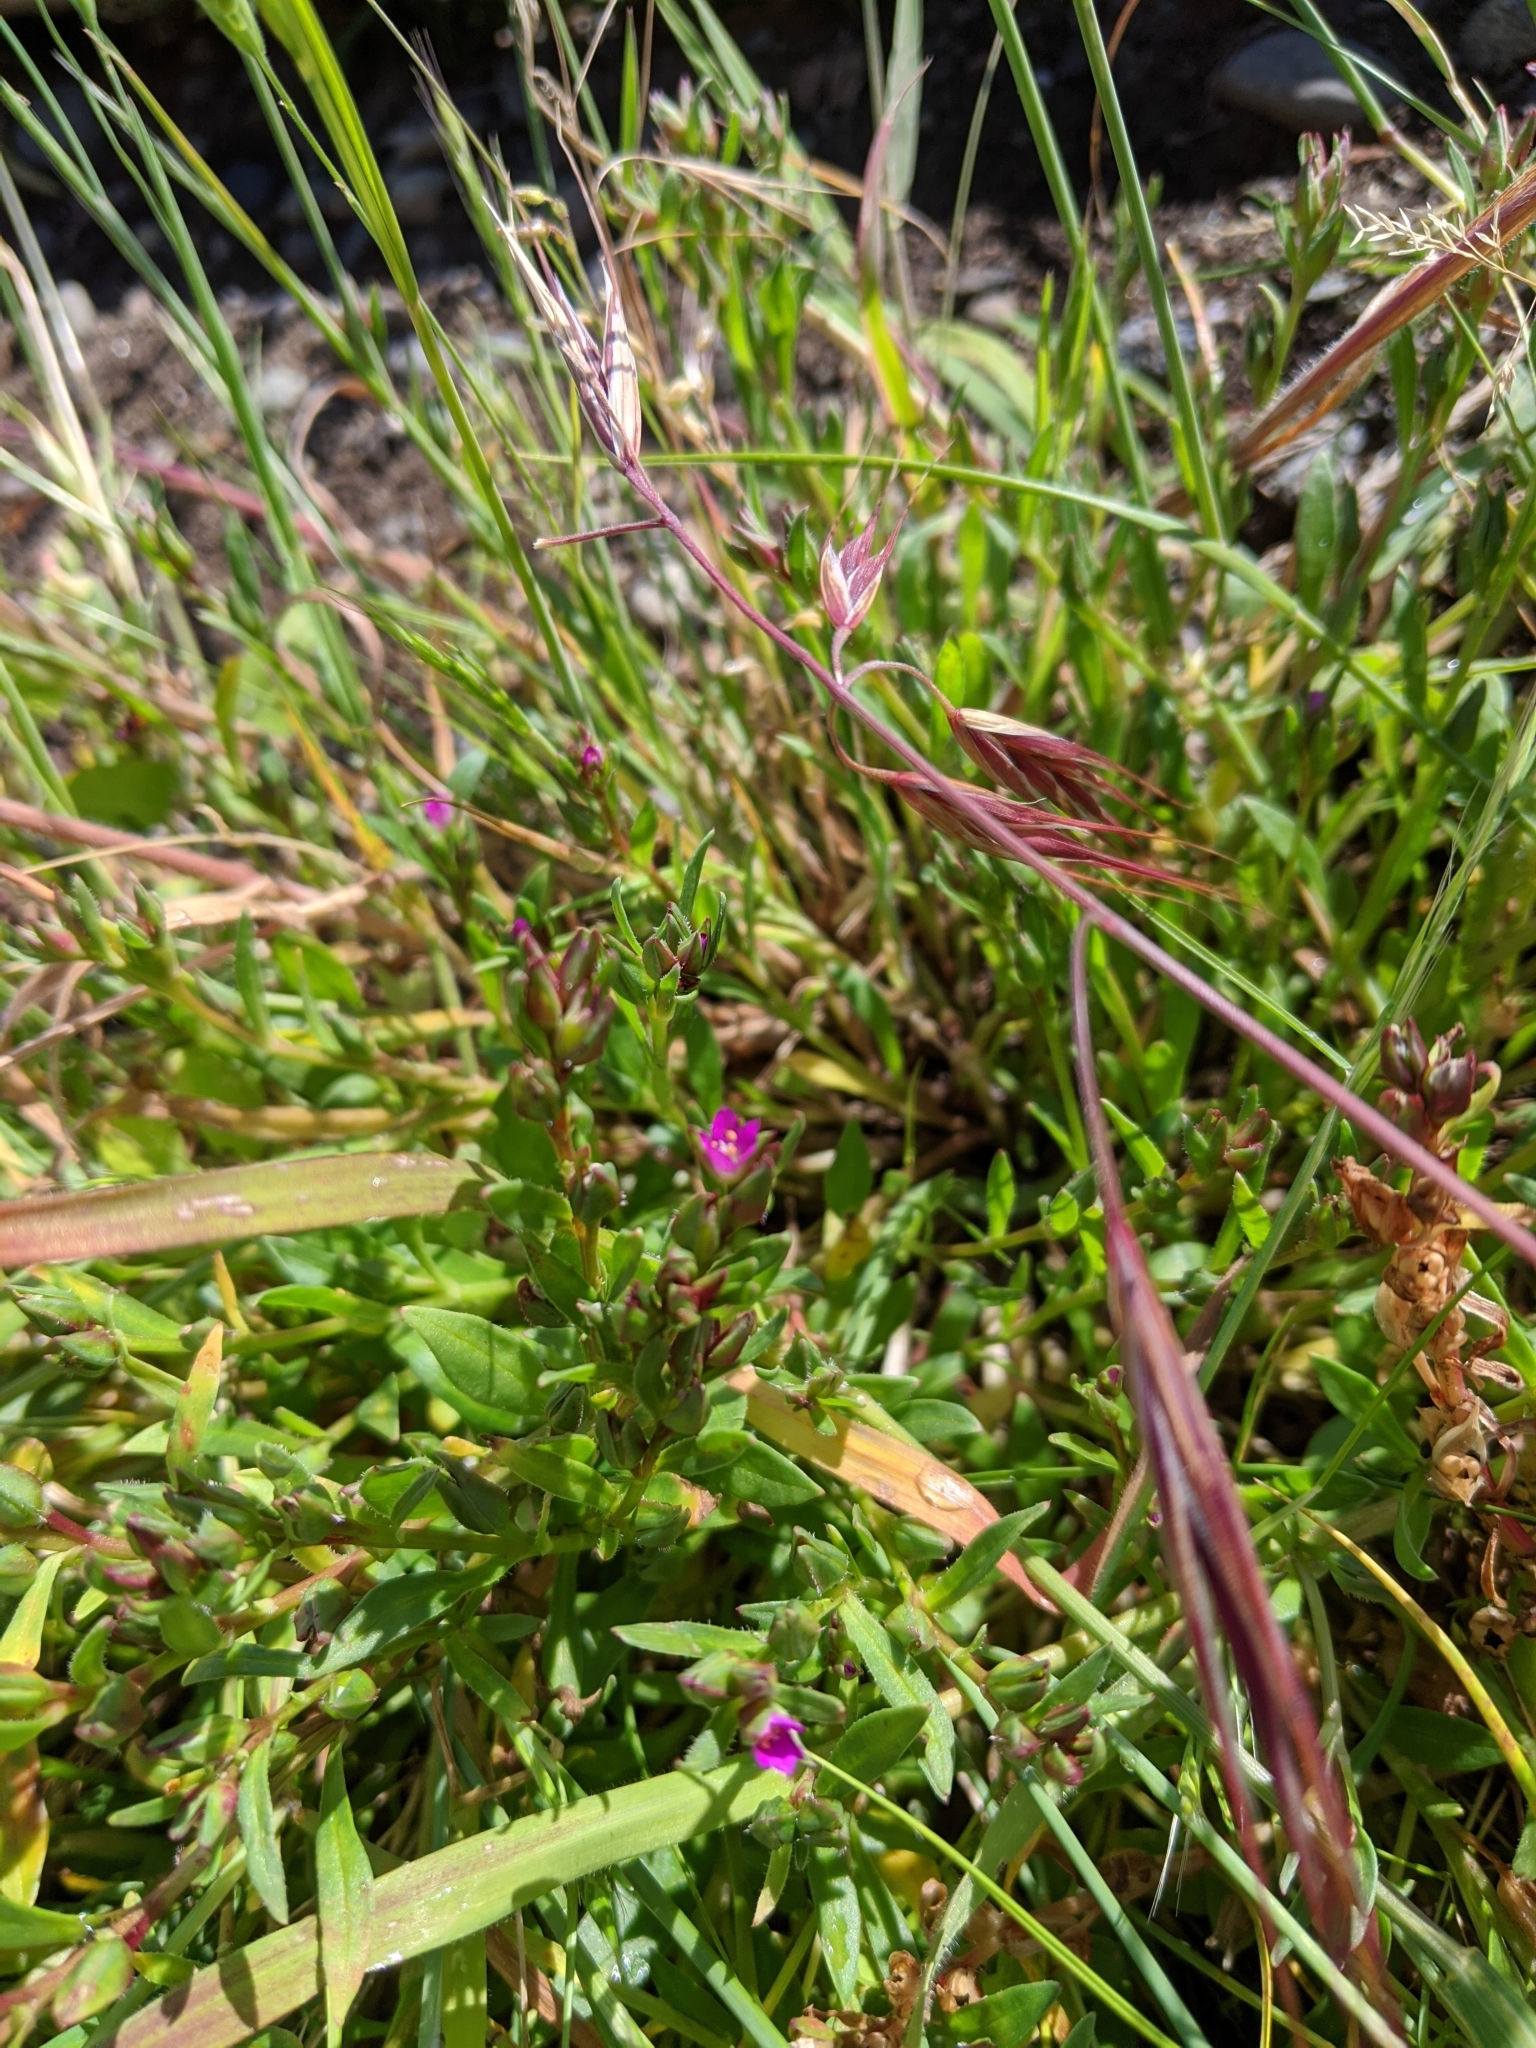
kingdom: Plantae
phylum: Tracheophyta
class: Magnoliopsida
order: Caryophyllales
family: Montiaceae
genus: Calandrinia
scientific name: Calandrinia menziesii
